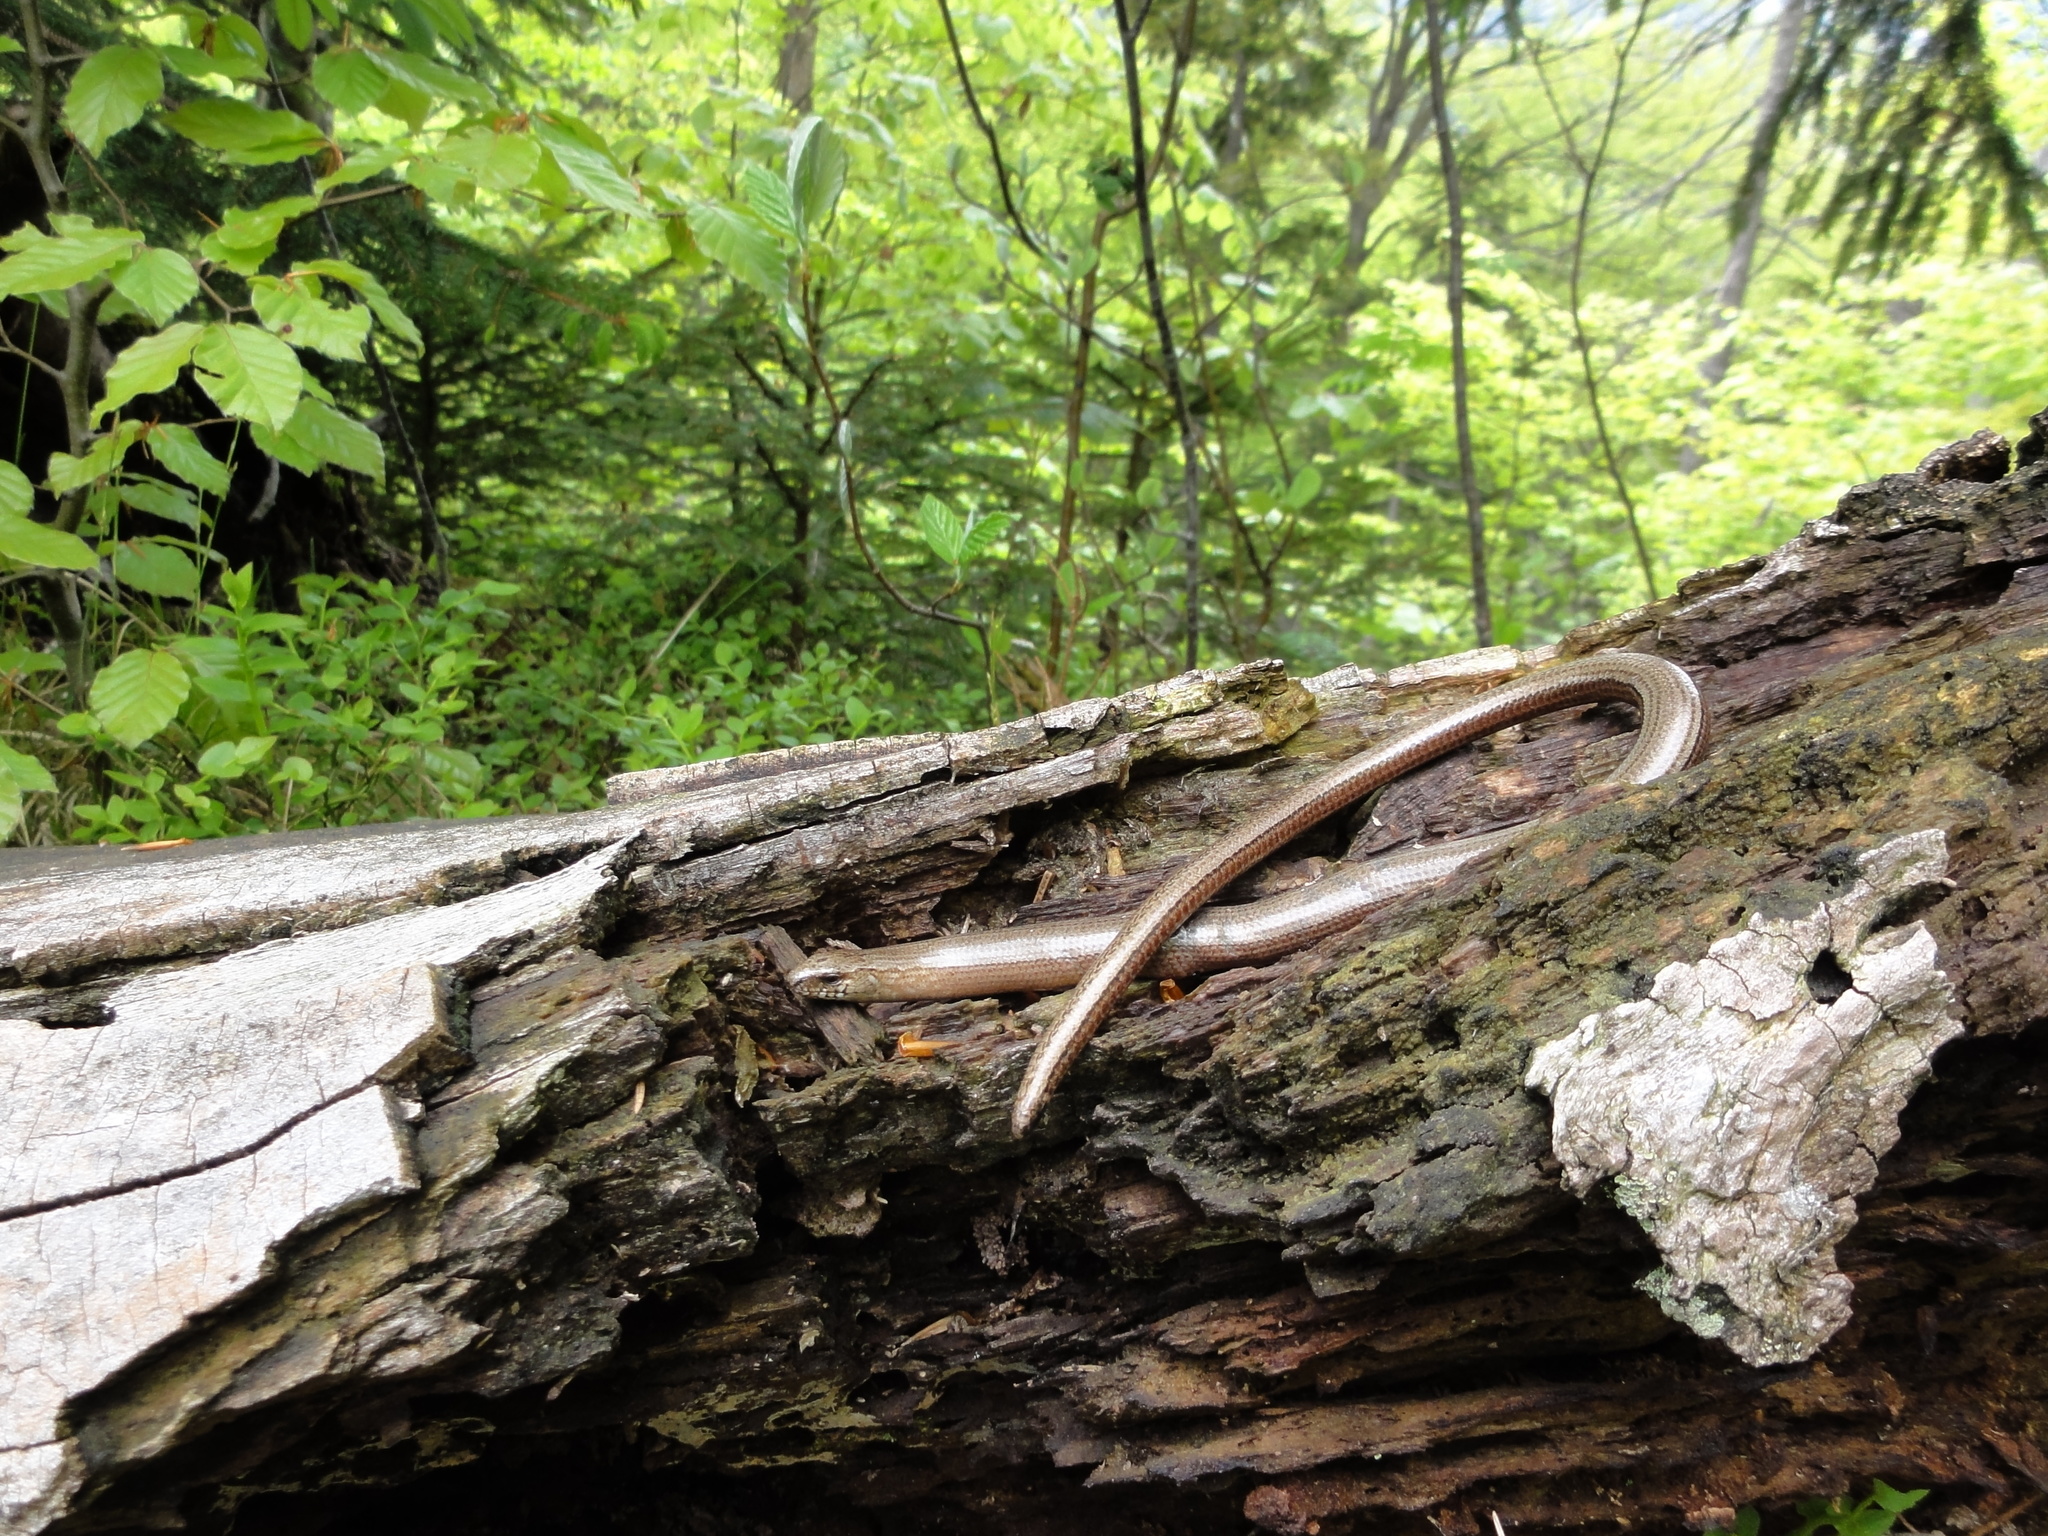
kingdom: Animalia
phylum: Chordata
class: Squamata
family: Anguidae
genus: Anguis
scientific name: Anguis fragilis
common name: Slow worm
